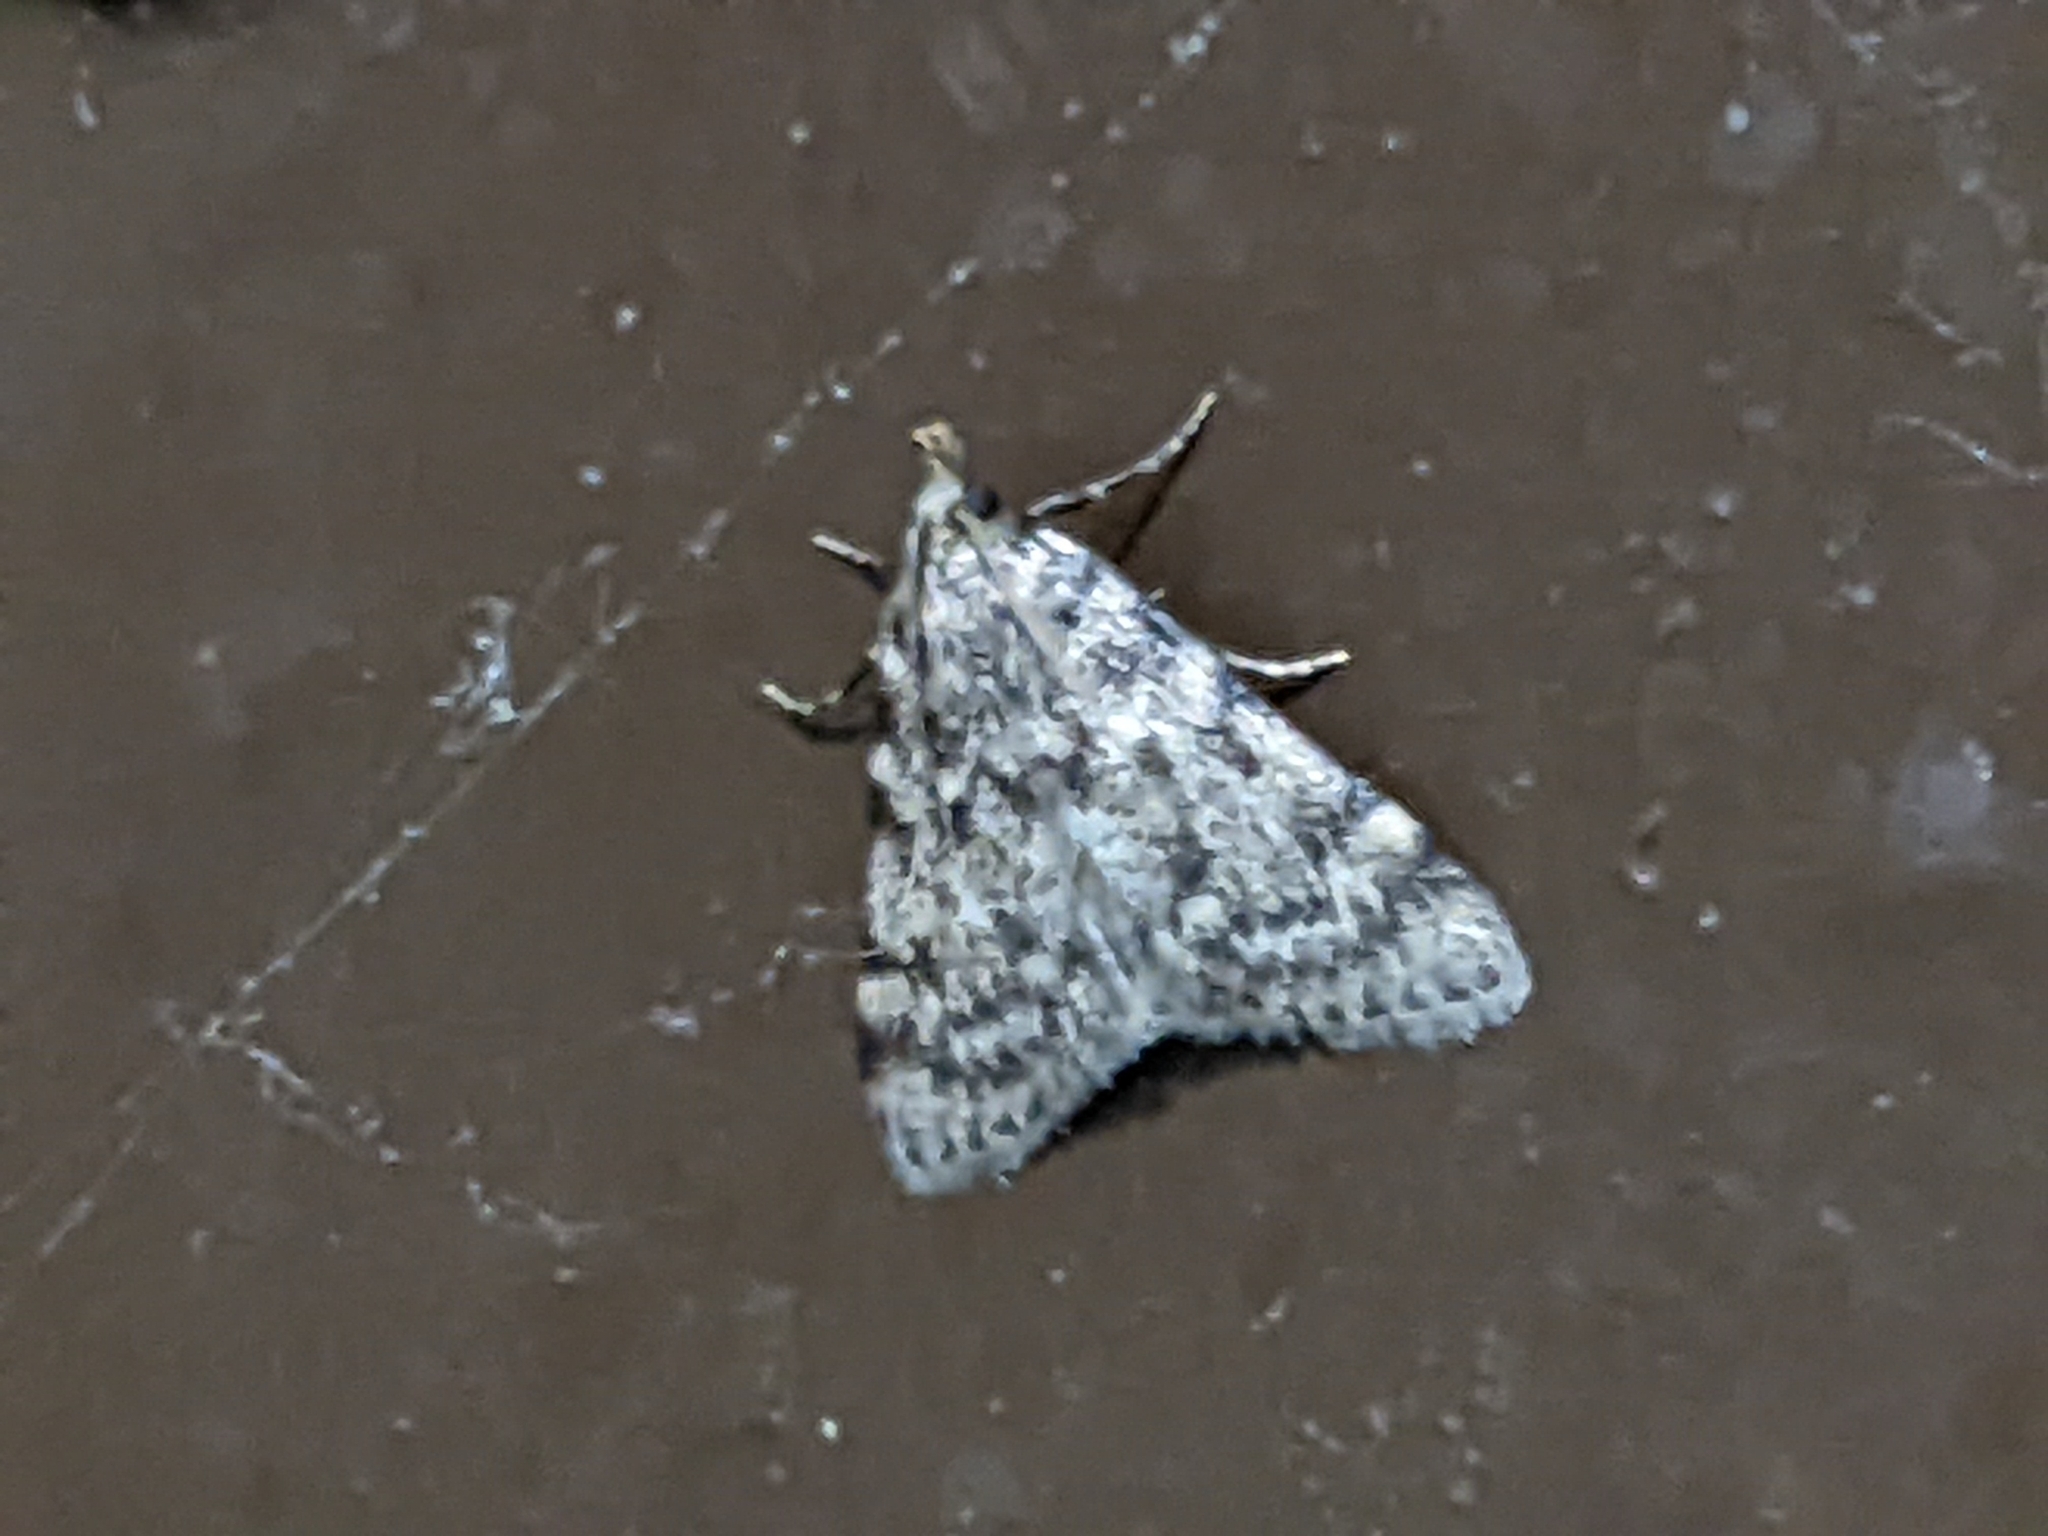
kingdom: Animalia
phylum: Arthropoda
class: Insecta
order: Lepidoptera
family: Pyralidae
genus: Aglossa
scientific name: Aglossa pinguinalis
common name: Large tabby
